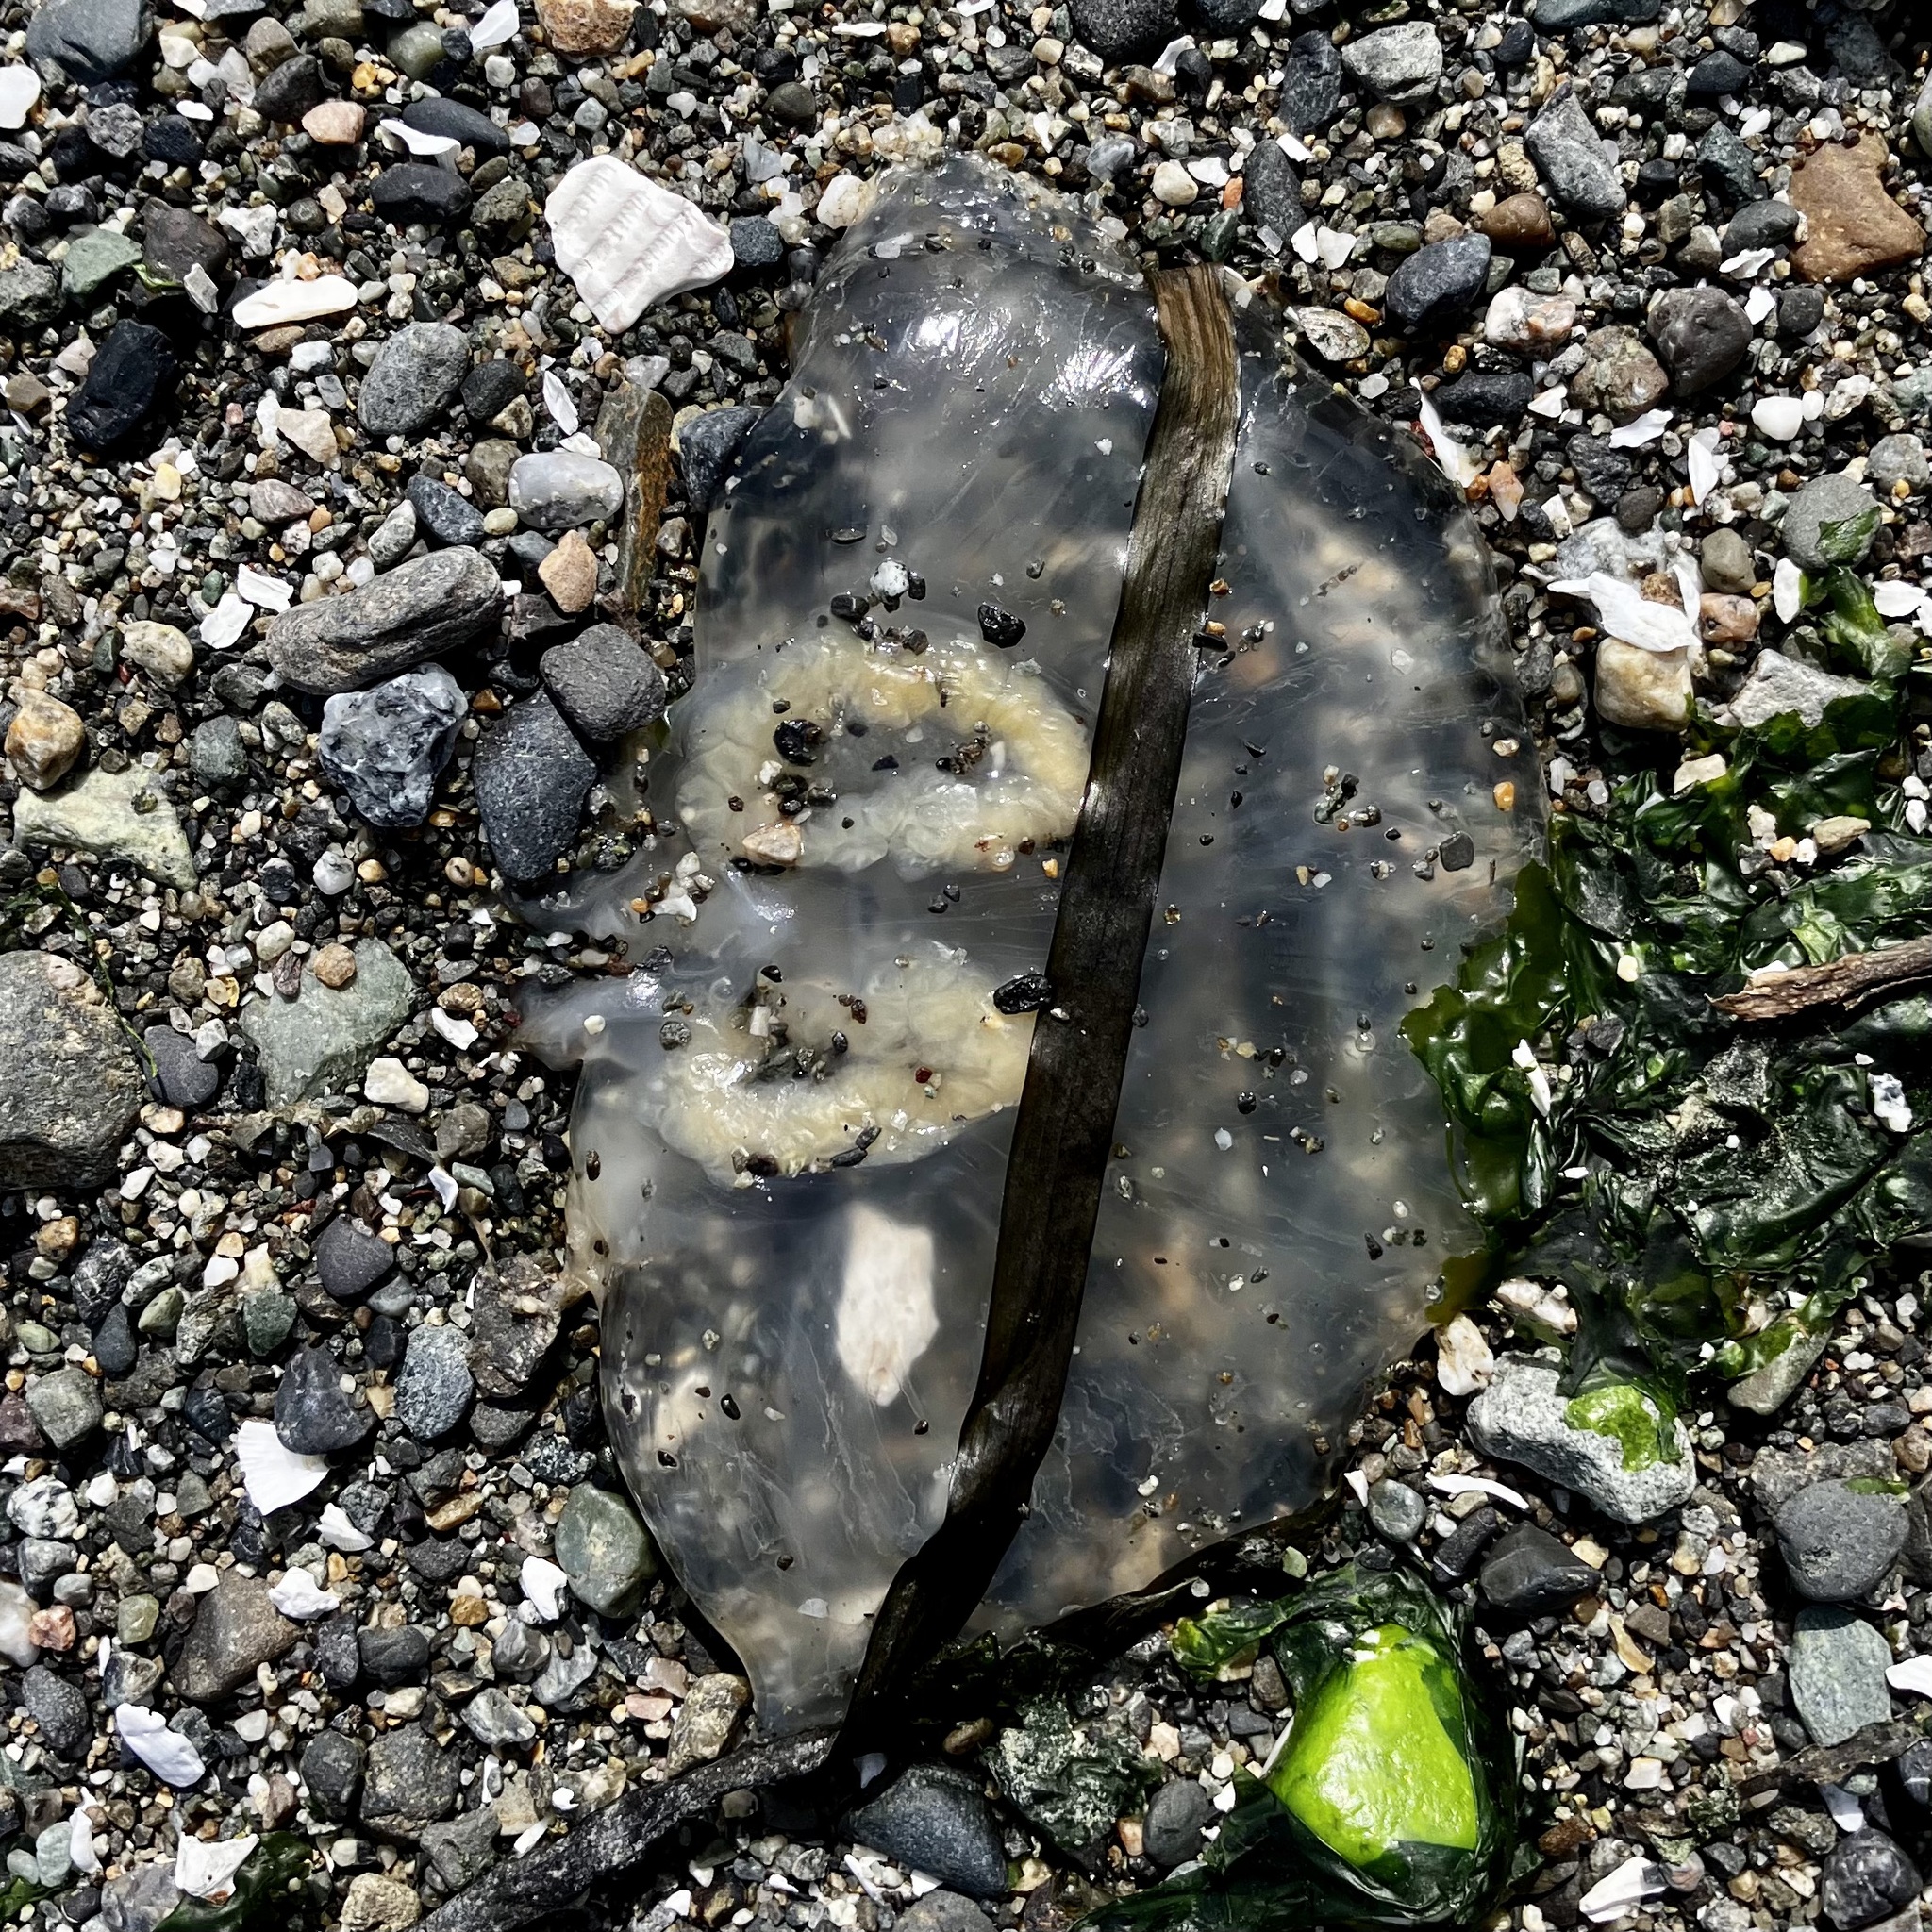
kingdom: Animalia
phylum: Cnidaria
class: Scyphozoa
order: Semaeostomeae
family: Phacellophoridae
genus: Phacellophora
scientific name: Phacellophora camtschatica
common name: Fried-egg jellyfish
